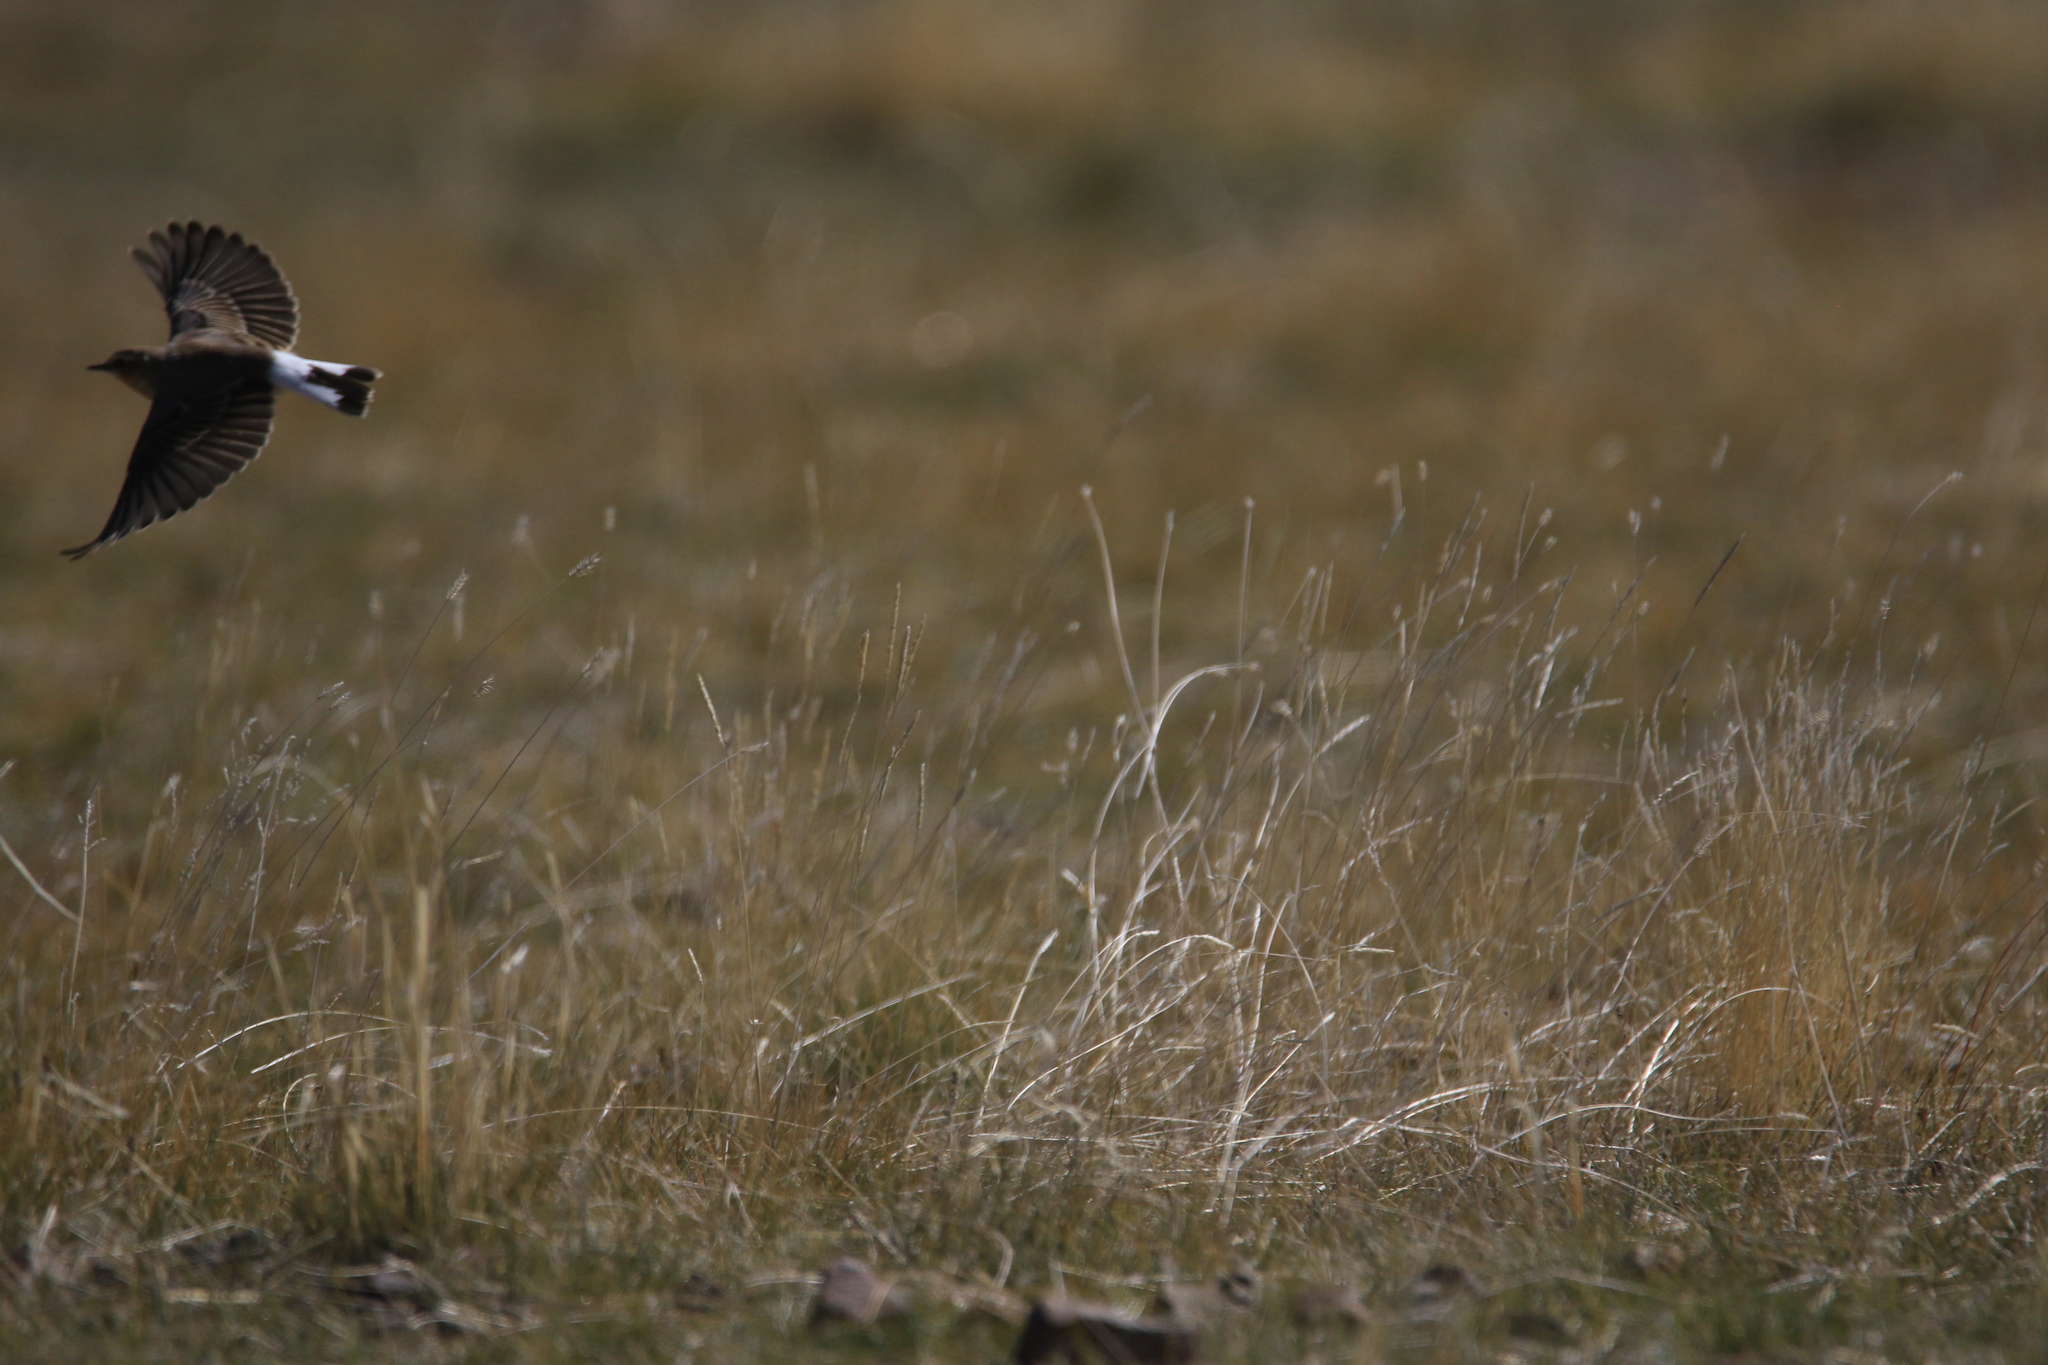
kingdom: Animalia
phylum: Chordata
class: Aves
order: Passeriformes
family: Muscicapidae
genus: Oenanthe
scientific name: Oenanthe isabellina
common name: Isabelline wheatear
